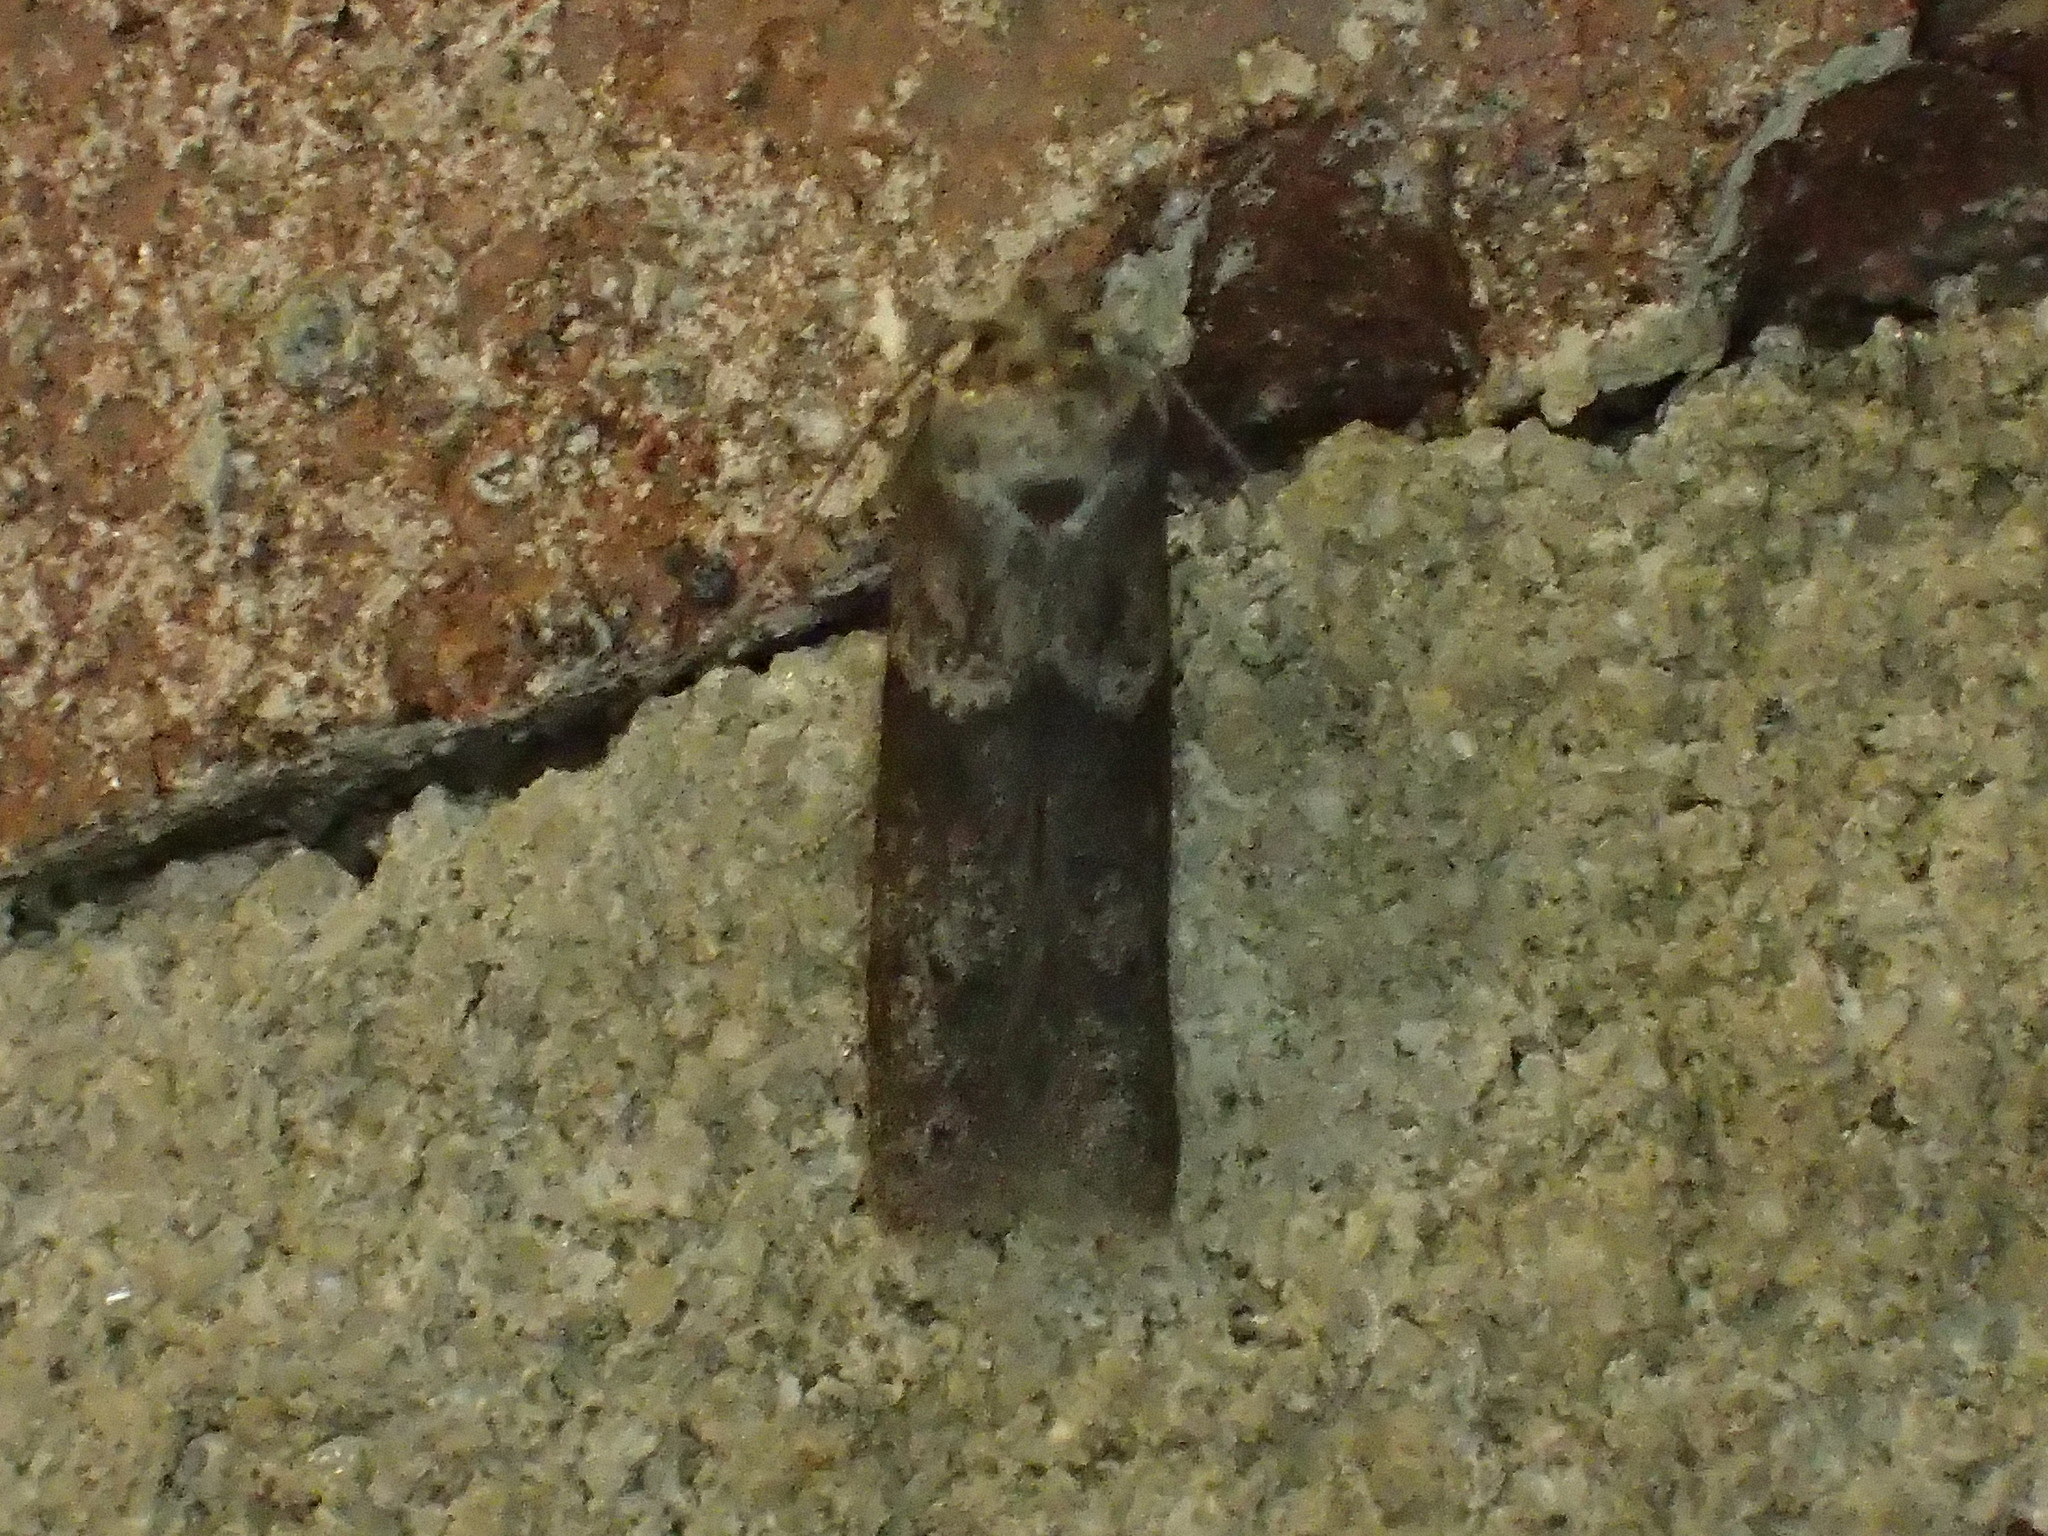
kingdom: Animalia
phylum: Arthropoda
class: Insecta
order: Lepidoptera
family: Blastobasidae
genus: Blastobasis
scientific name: Blastobasis glandulella
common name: Acorn moth
